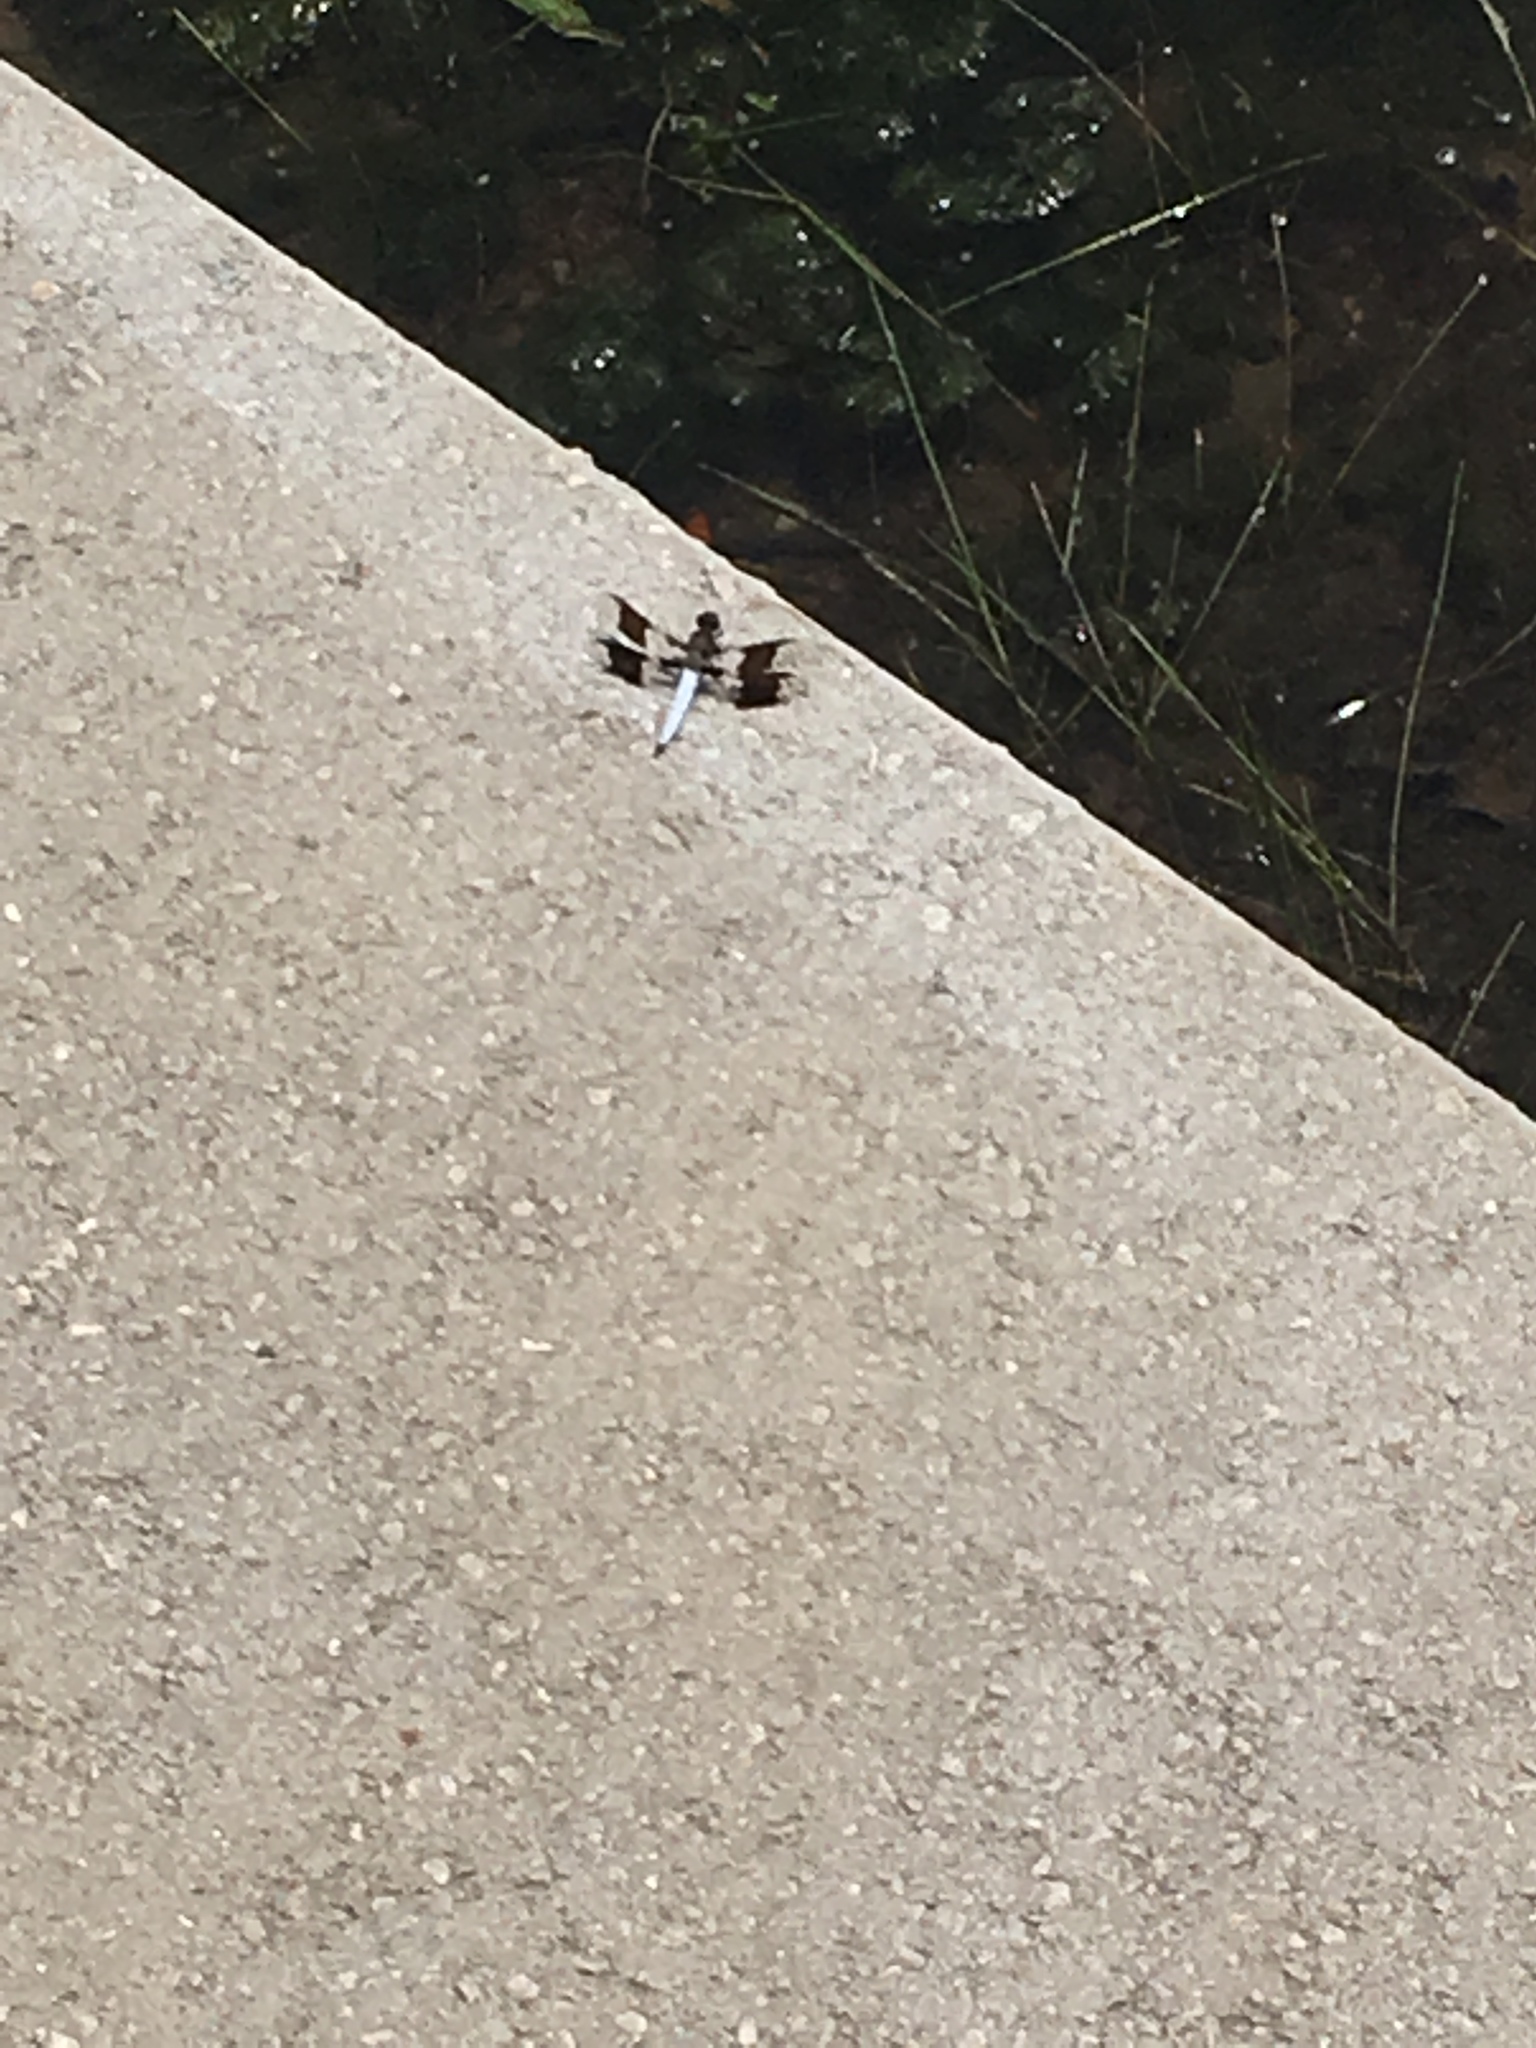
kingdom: Animalia
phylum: Arthropoda
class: Insecta
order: Odonata
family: Libellulidae
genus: Plathemis
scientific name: Plathemis lydia
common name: Common whitetail
